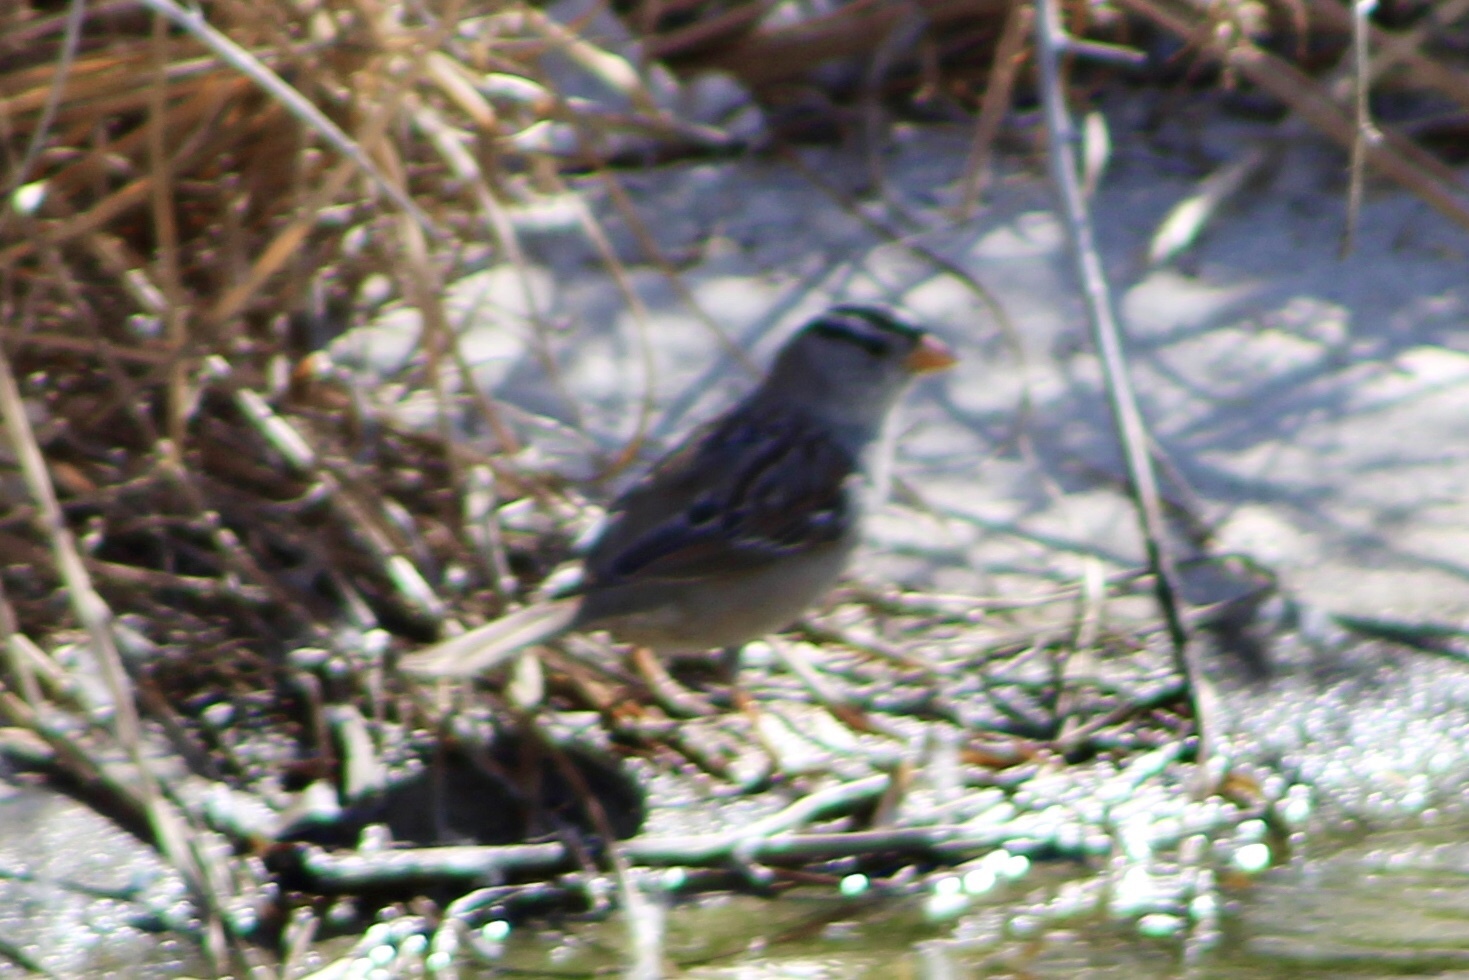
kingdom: Animalia
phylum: Chordata
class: Aves
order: Passeriformes
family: Passerellidae
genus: Zonotrichia
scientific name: Zonotrichia leucophrys
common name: White-crowned sparrow
